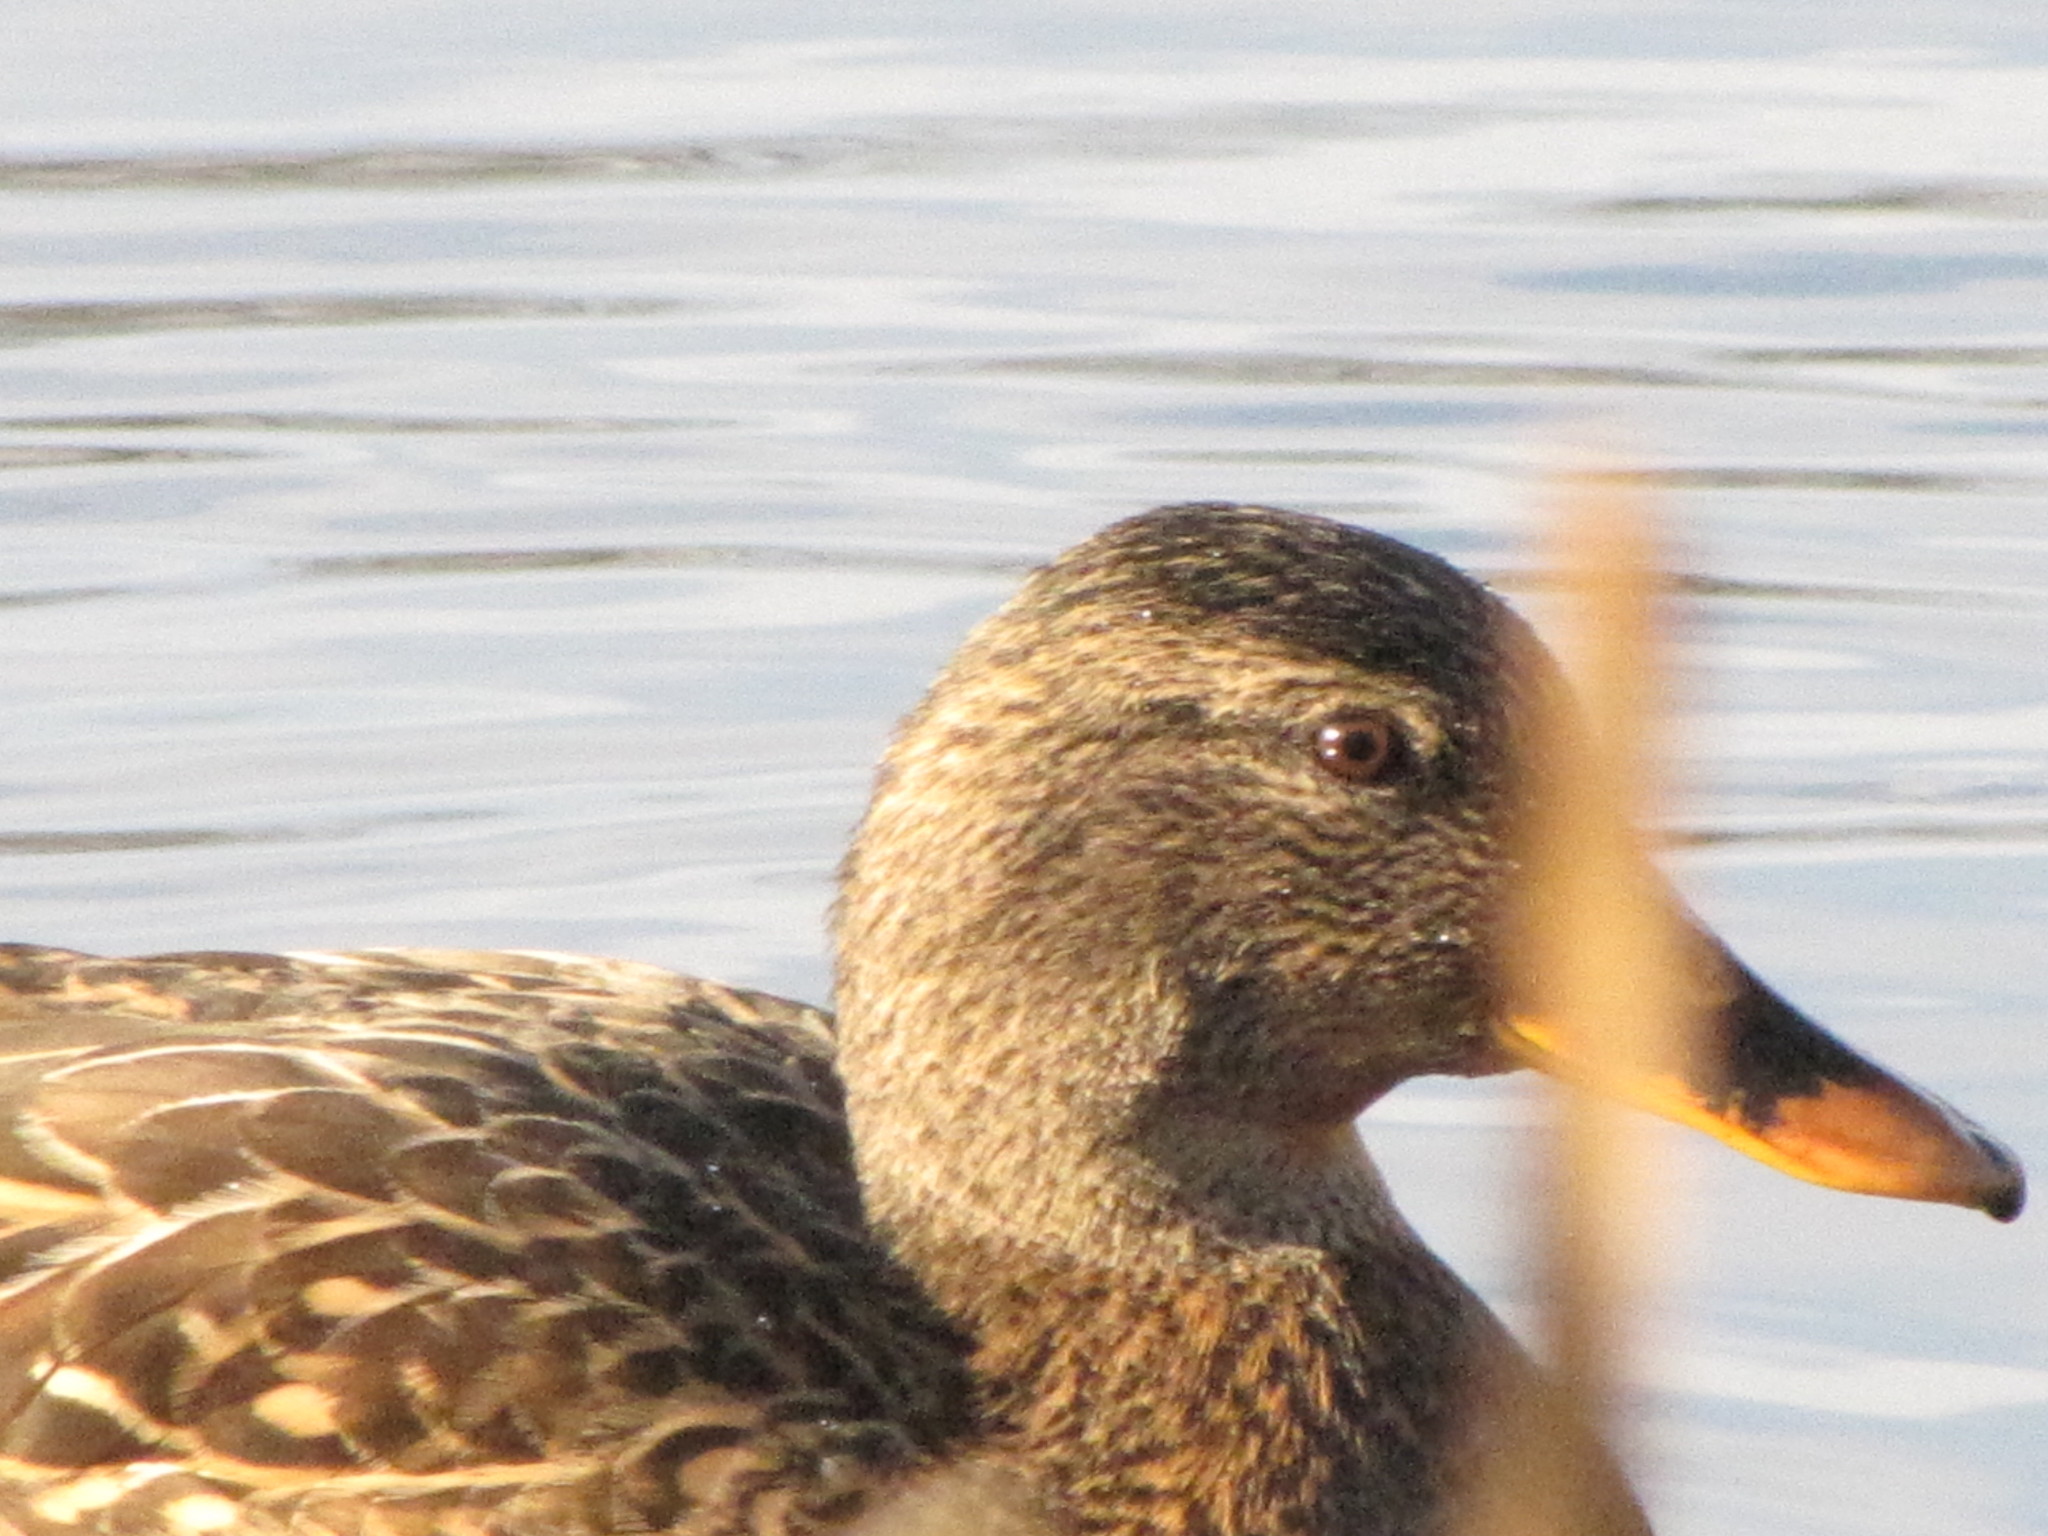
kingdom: Animalia
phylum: Chordata
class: Aves
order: Anseriformes
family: Anatidae
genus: Anas
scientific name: Anas platyrhynchos
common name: Mallard
